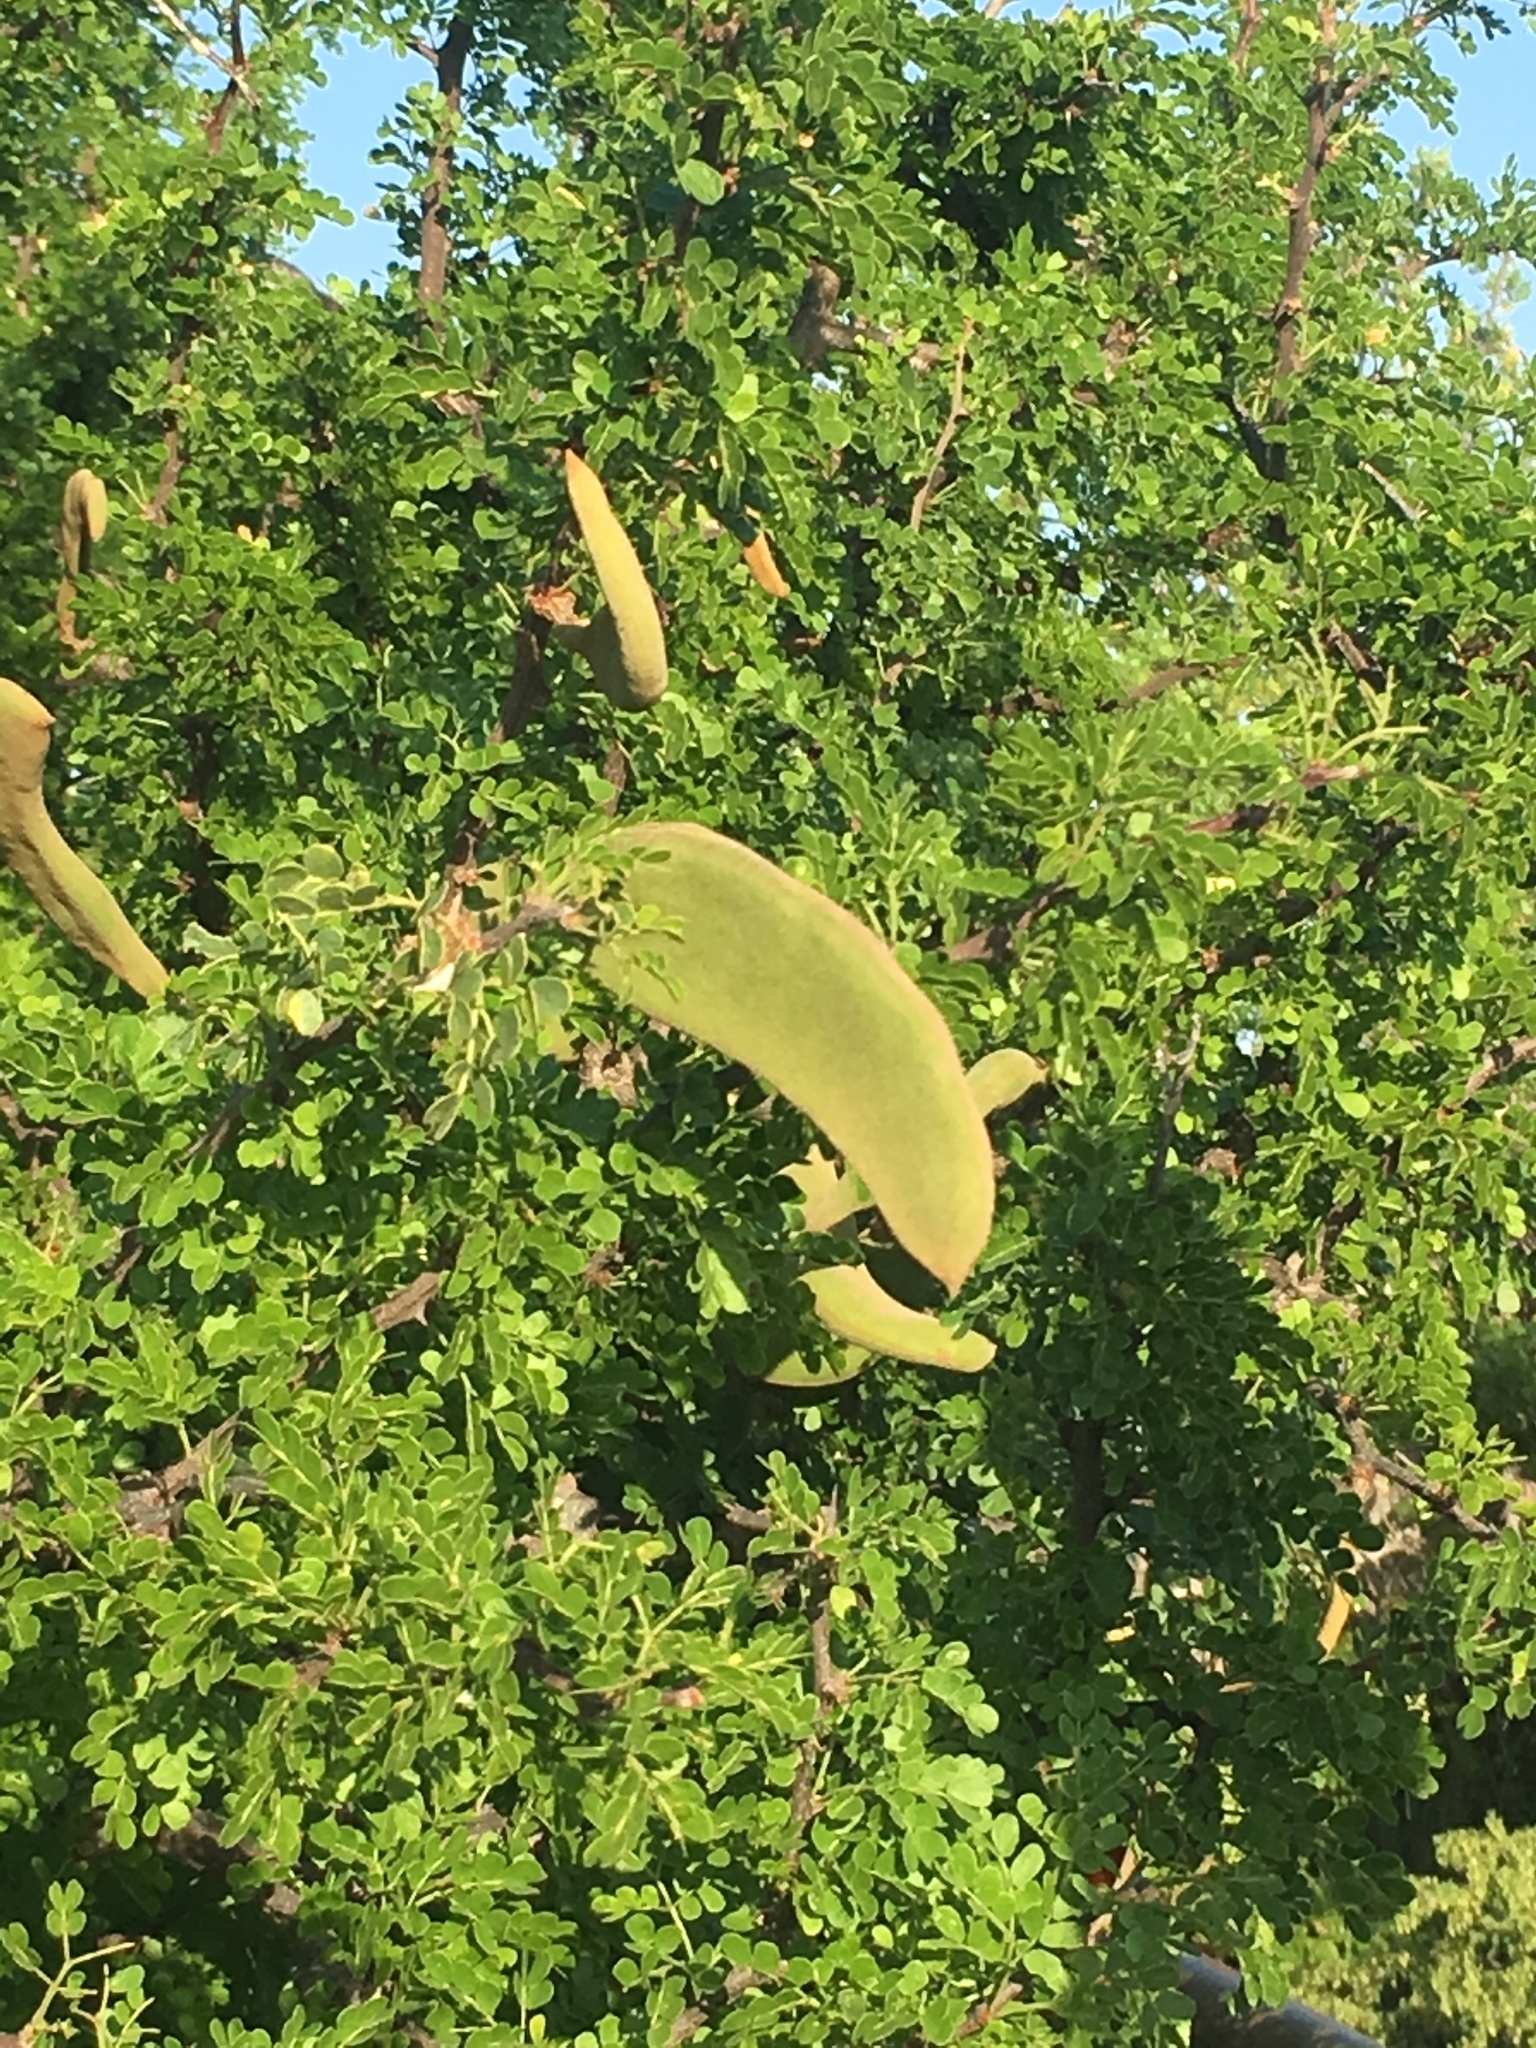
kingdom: Plantae
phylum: Tracheophyta
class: Magnoliopsida
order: Fabales
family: Fabaceae
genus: Ebenopsis
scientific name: Ebenopsis confinis
